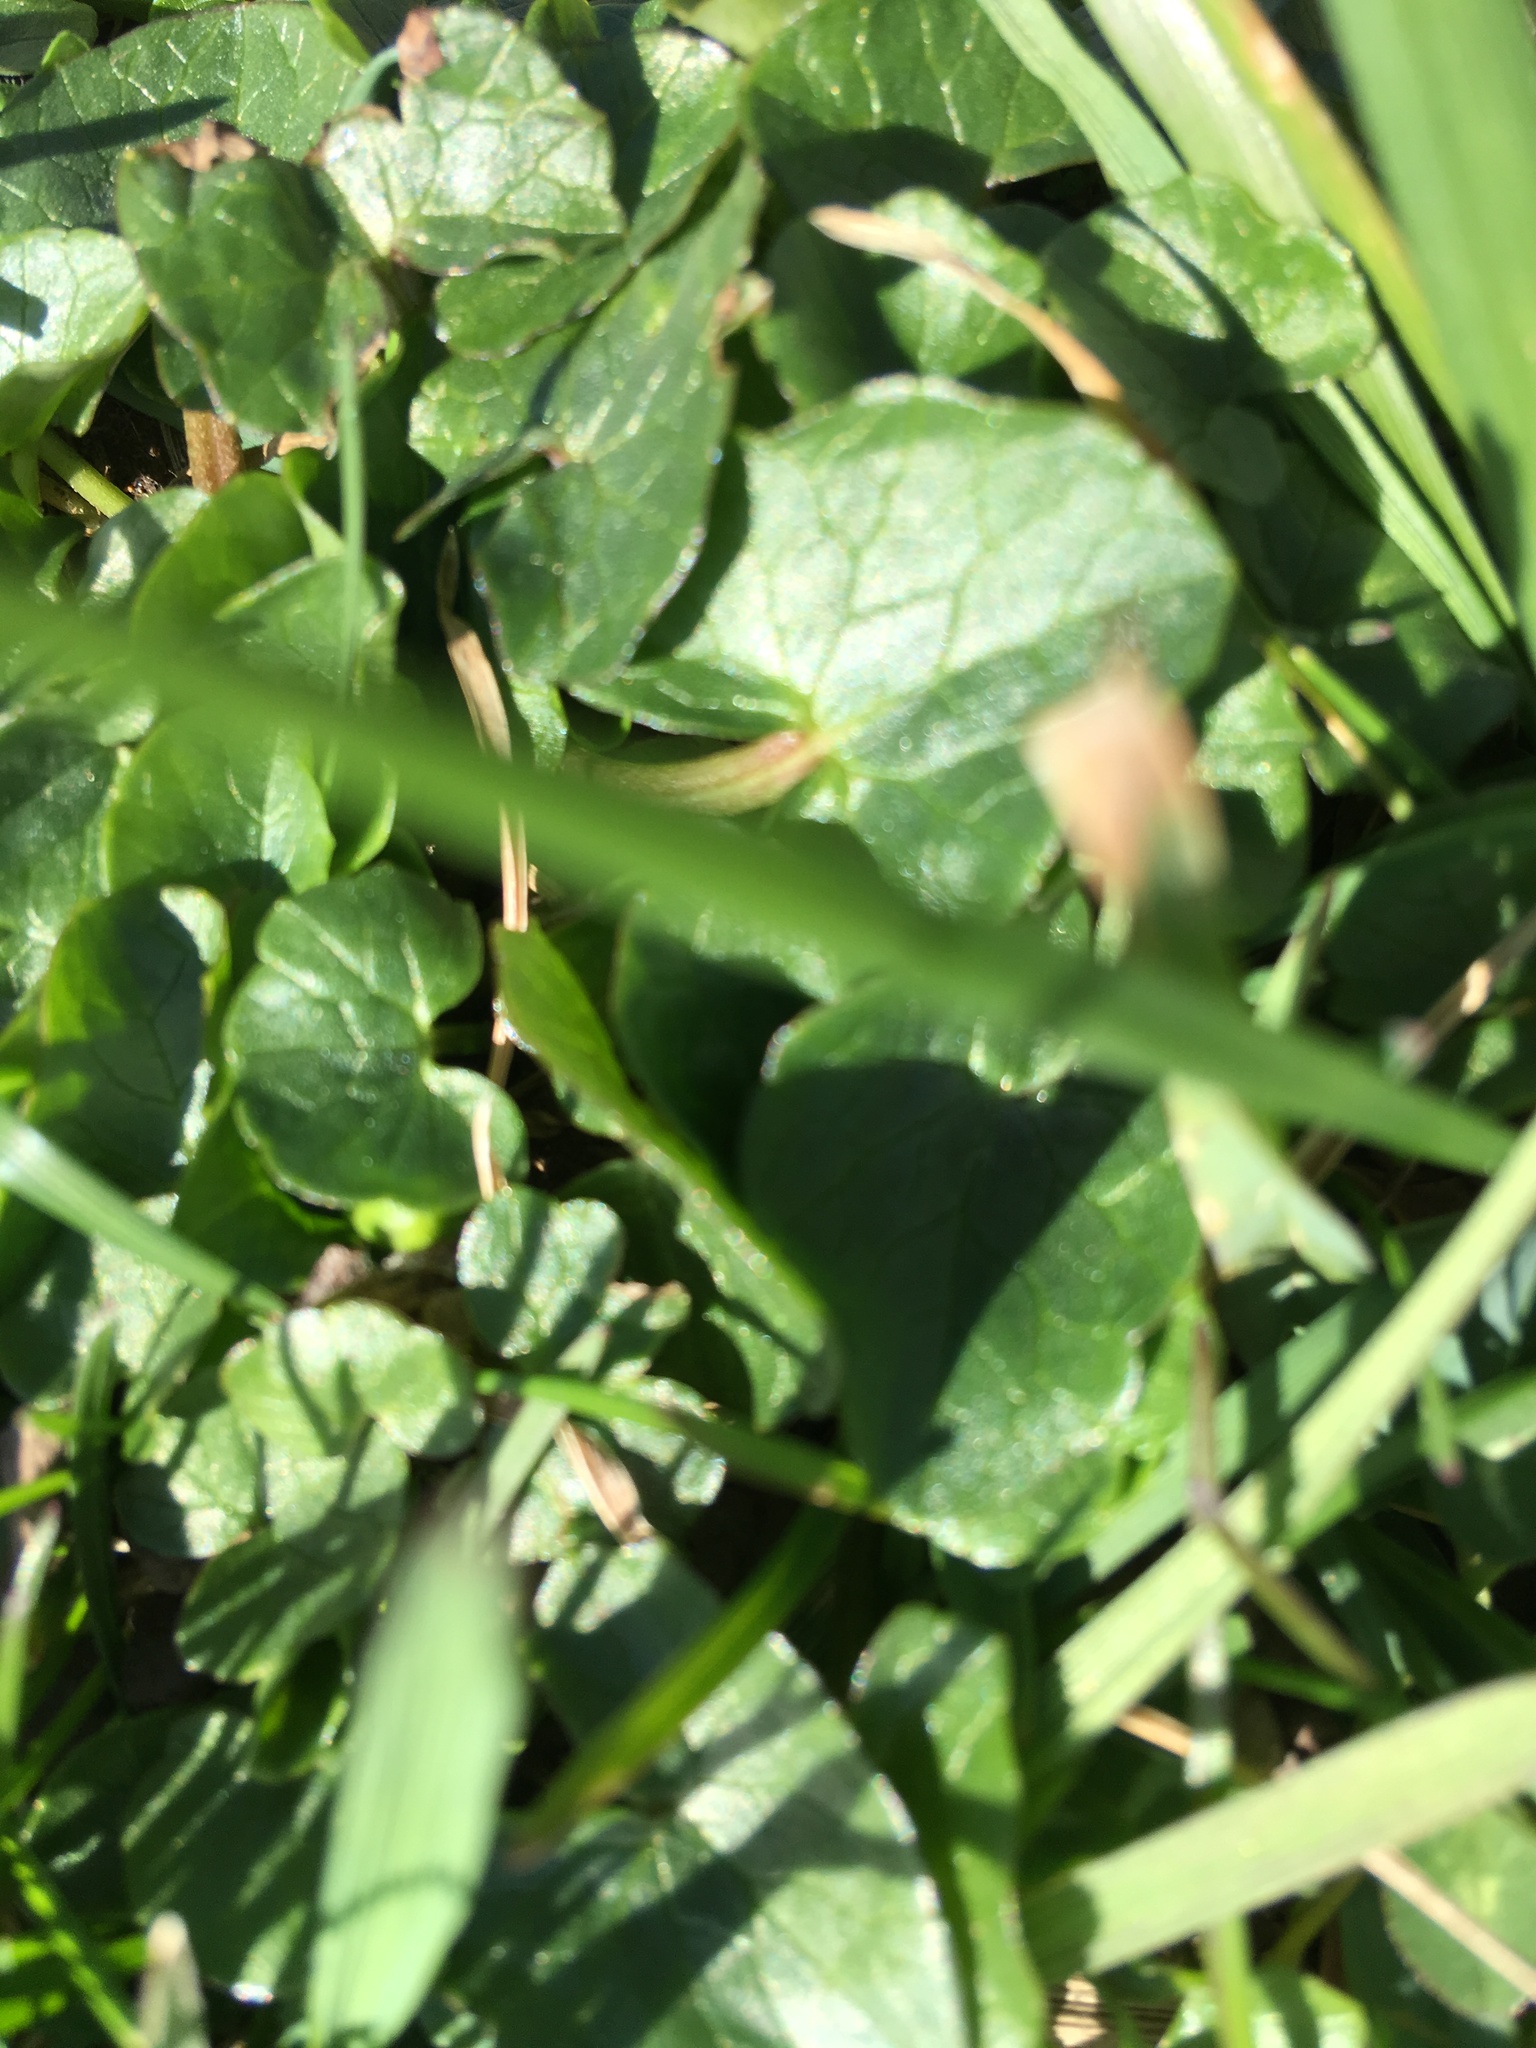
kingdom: Plantae
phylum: Tracheophyta
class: Magnoliopsida
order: Ranunculales
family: Ranunculaceae
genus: Ficaria
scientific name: Ficaria verna
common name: Lesser celandine
